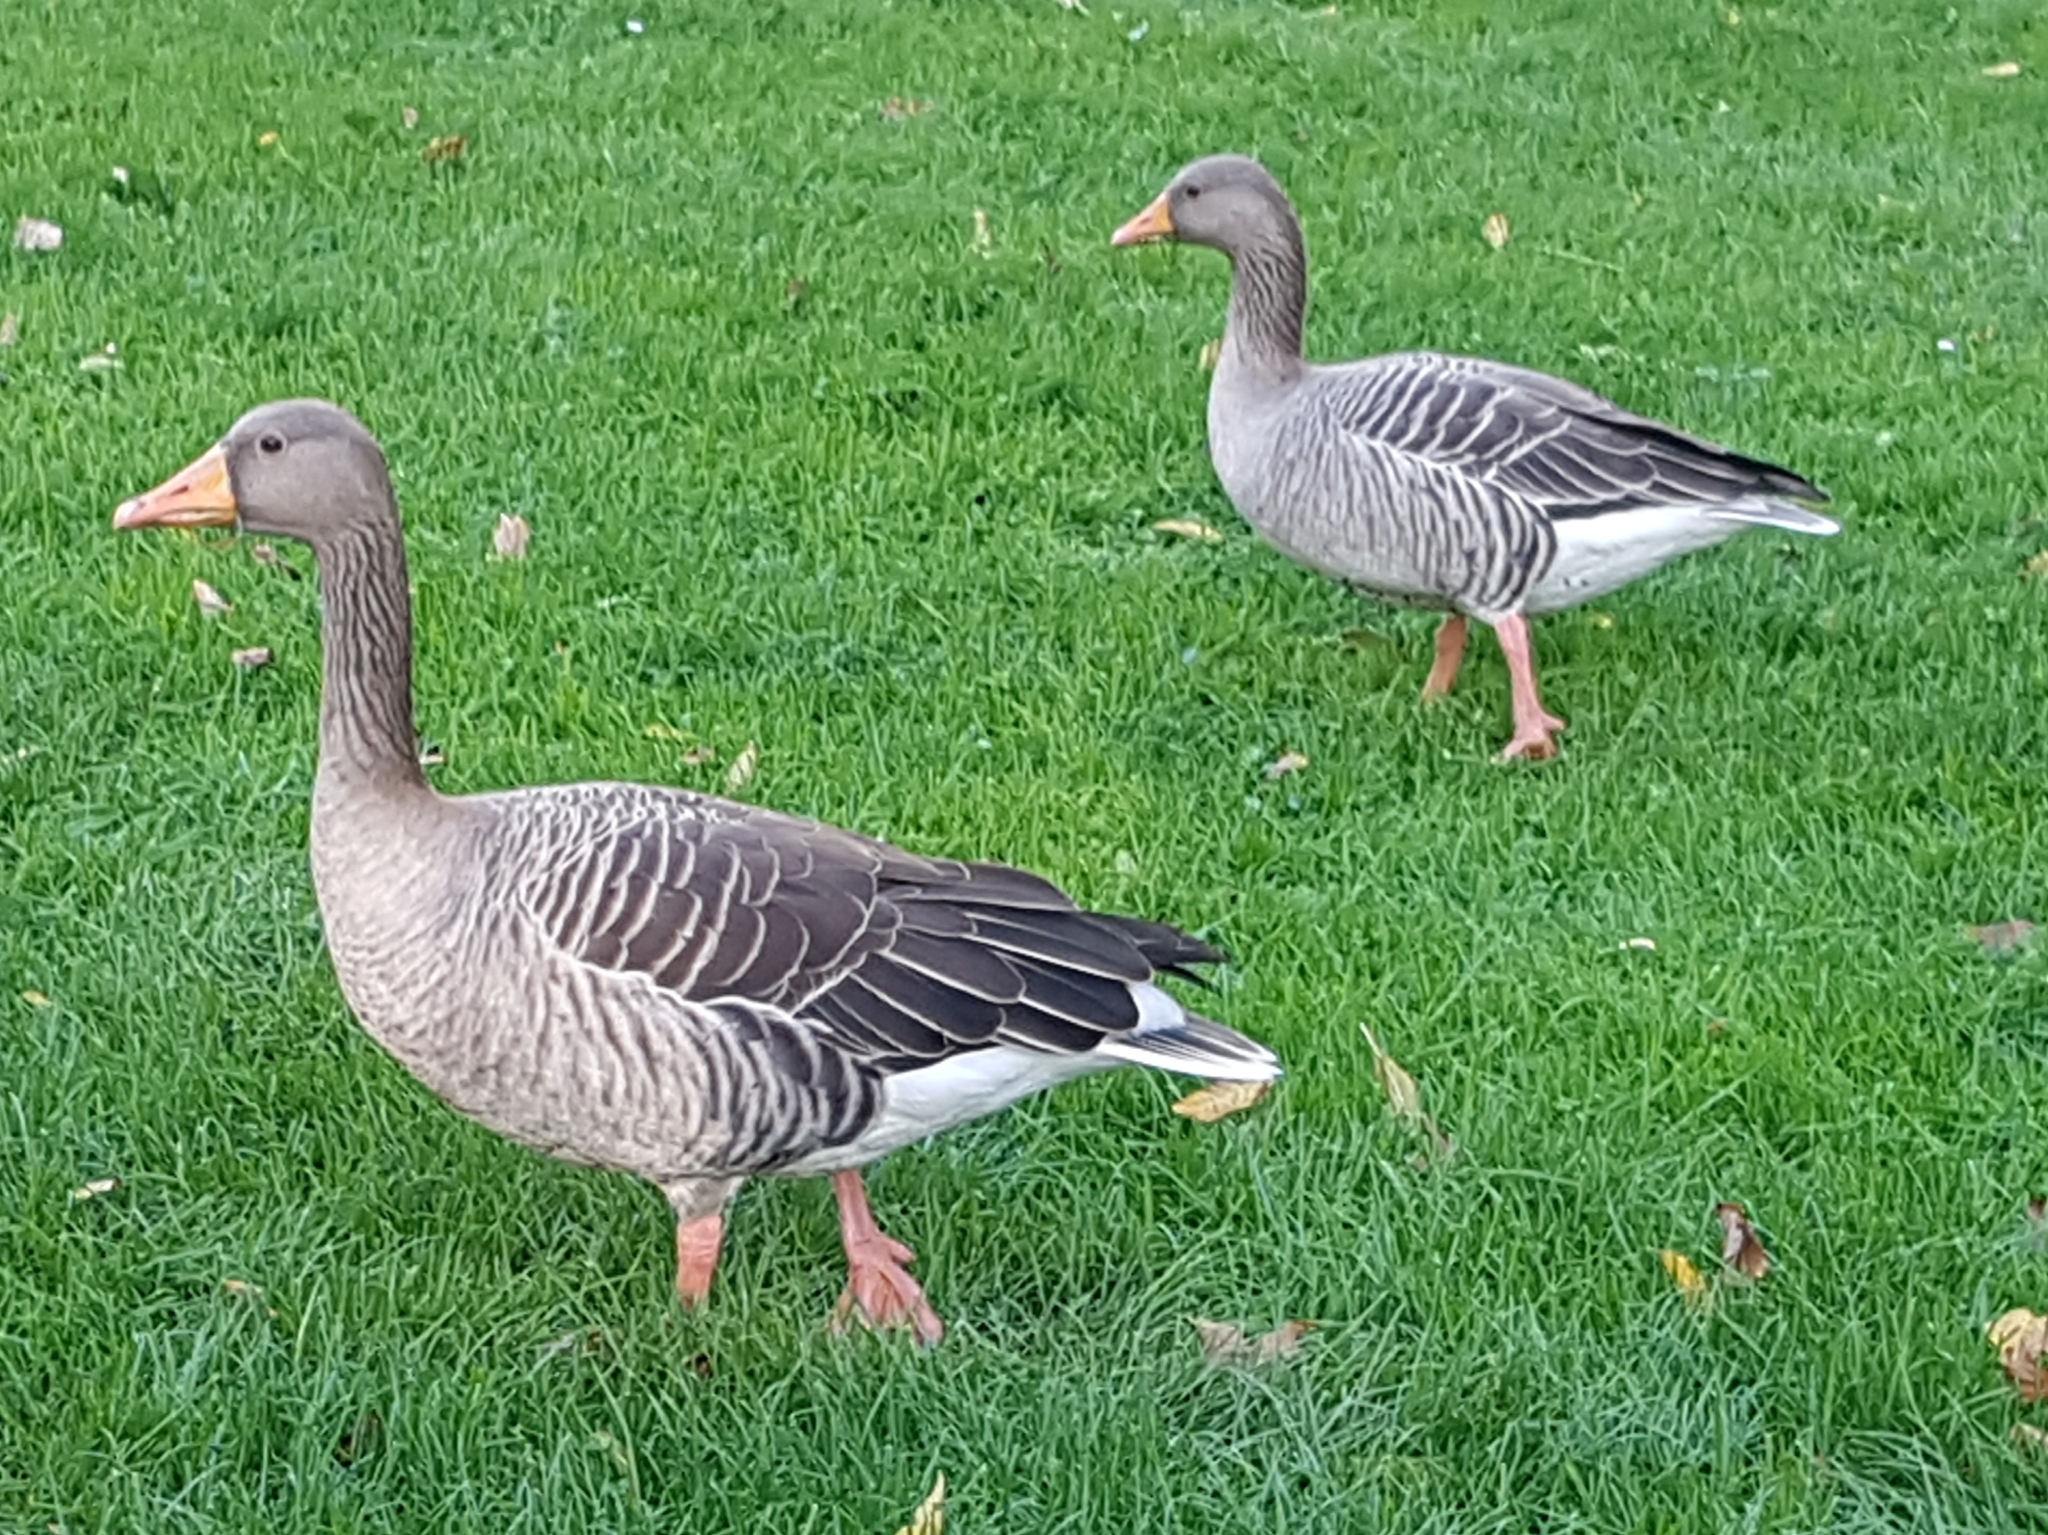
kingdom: Animalia
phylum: Chordata
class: Aves
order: Anseriformes
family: Anatidae
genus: Anser
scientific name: Anser anser
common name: Greylag goose
